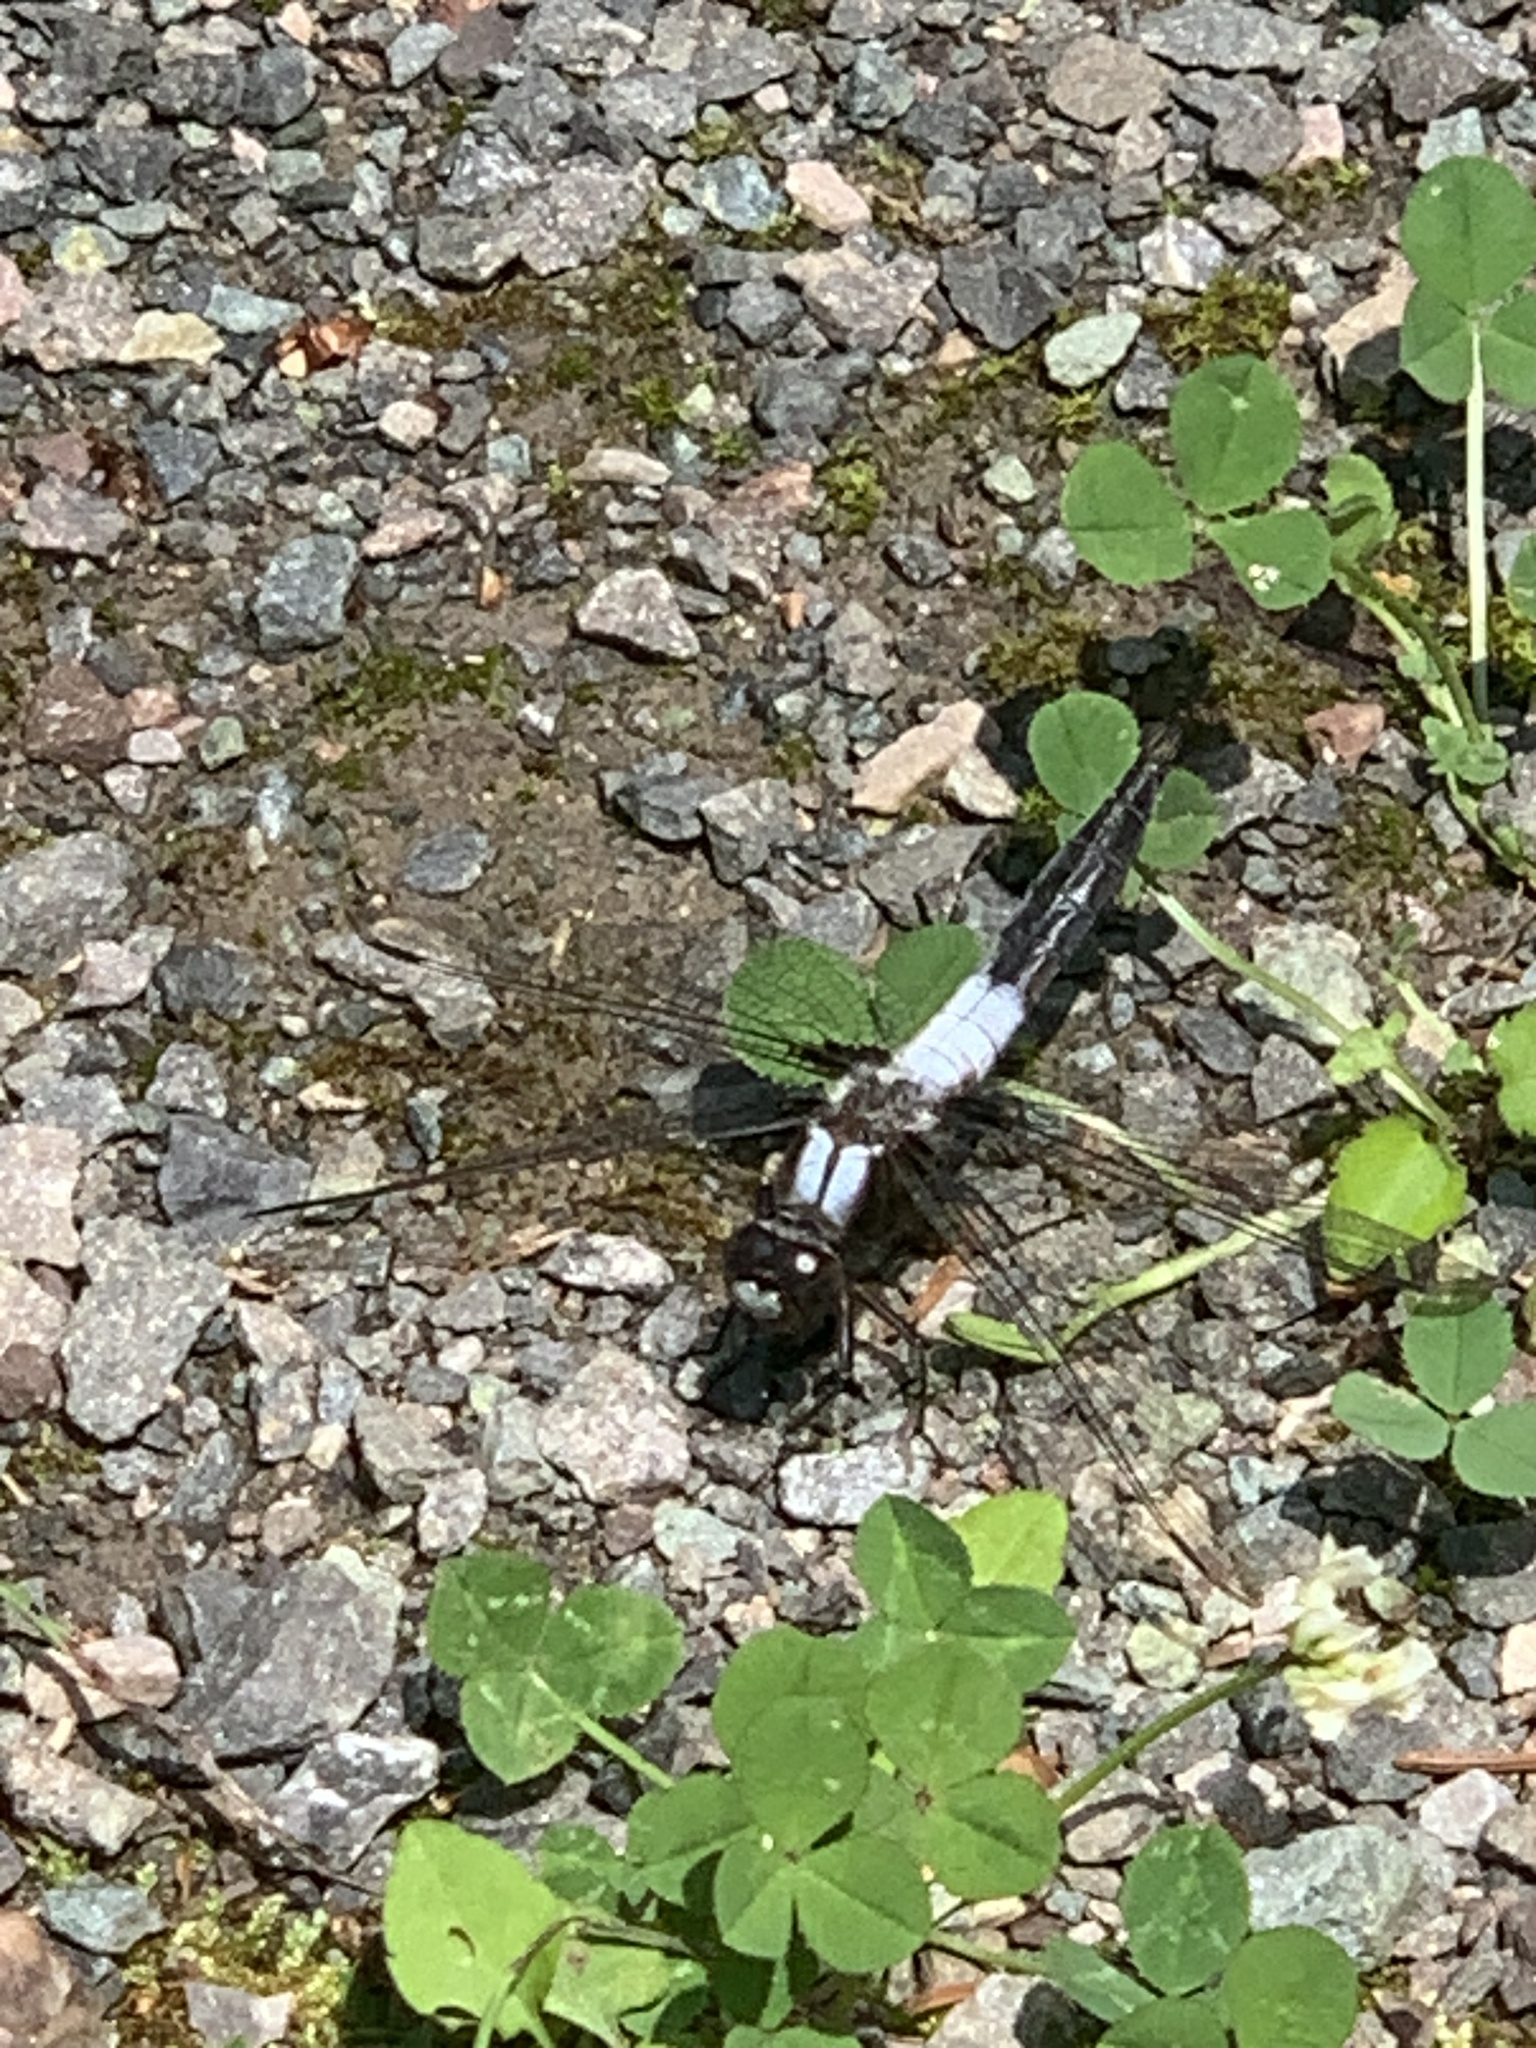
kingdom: Animalia
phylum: Arthropoda
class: Insecta
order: Odonata
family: Libellulidae
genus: Ladona
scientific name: Ladona julia
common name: Chalk-fronted corporal
